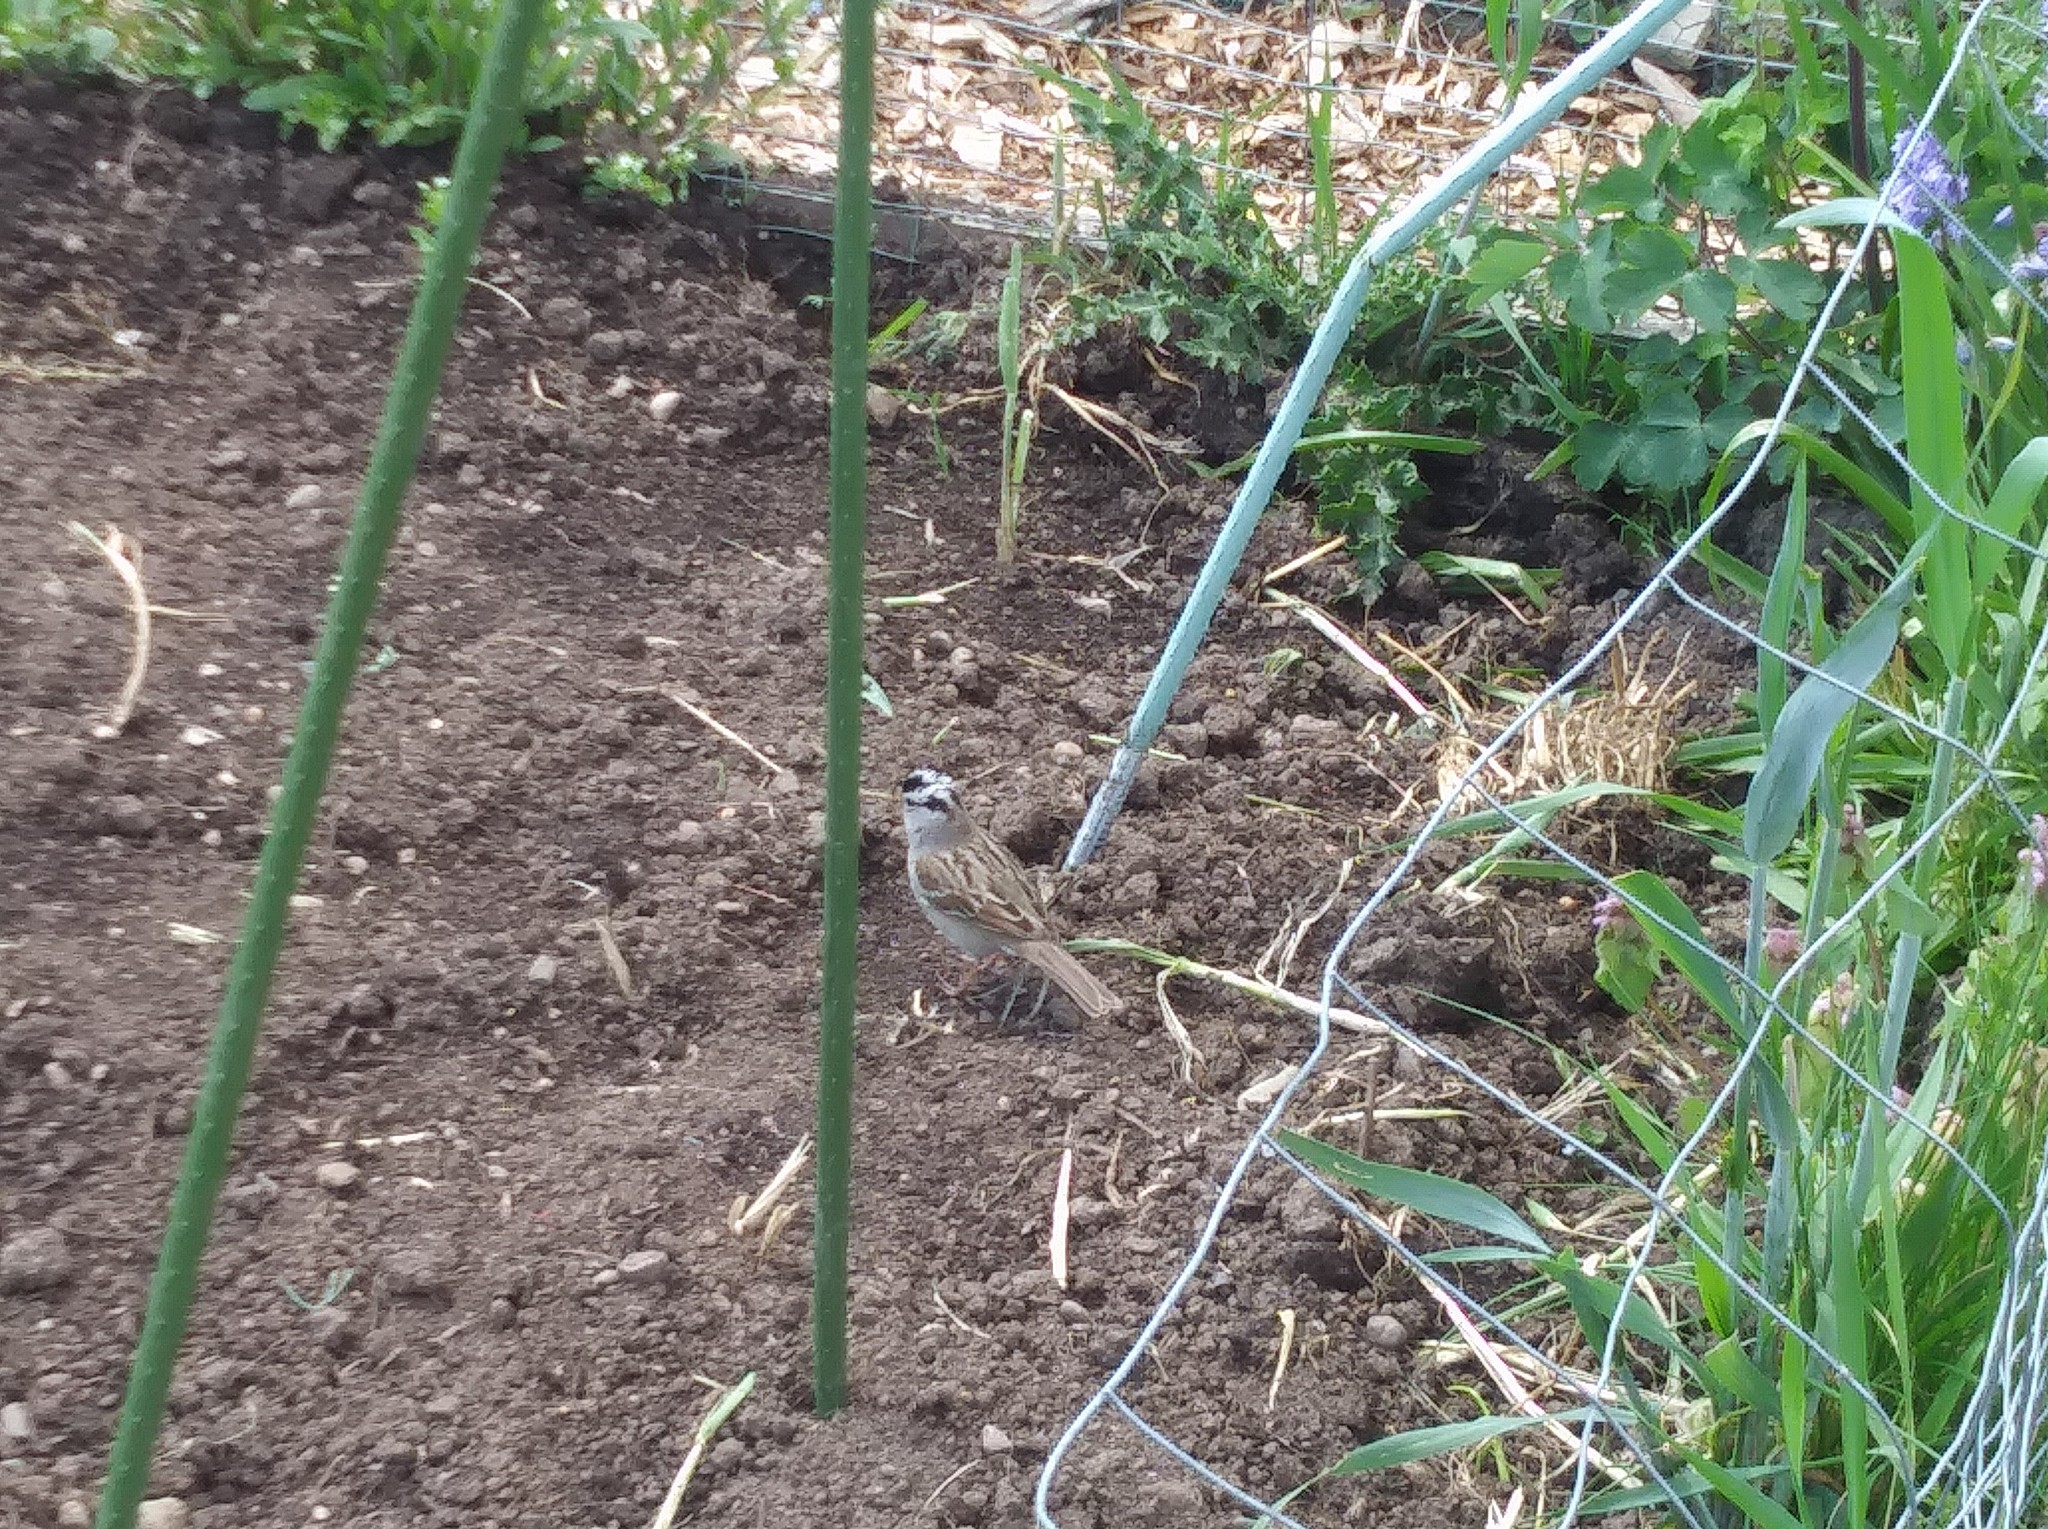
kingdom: Animalia
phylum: Chordata
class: Aves
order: Passeriformes
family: Passerellidae
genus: Zonotrichia
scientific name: Zonotrichia leucophrys
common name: White-crowned sparrow
